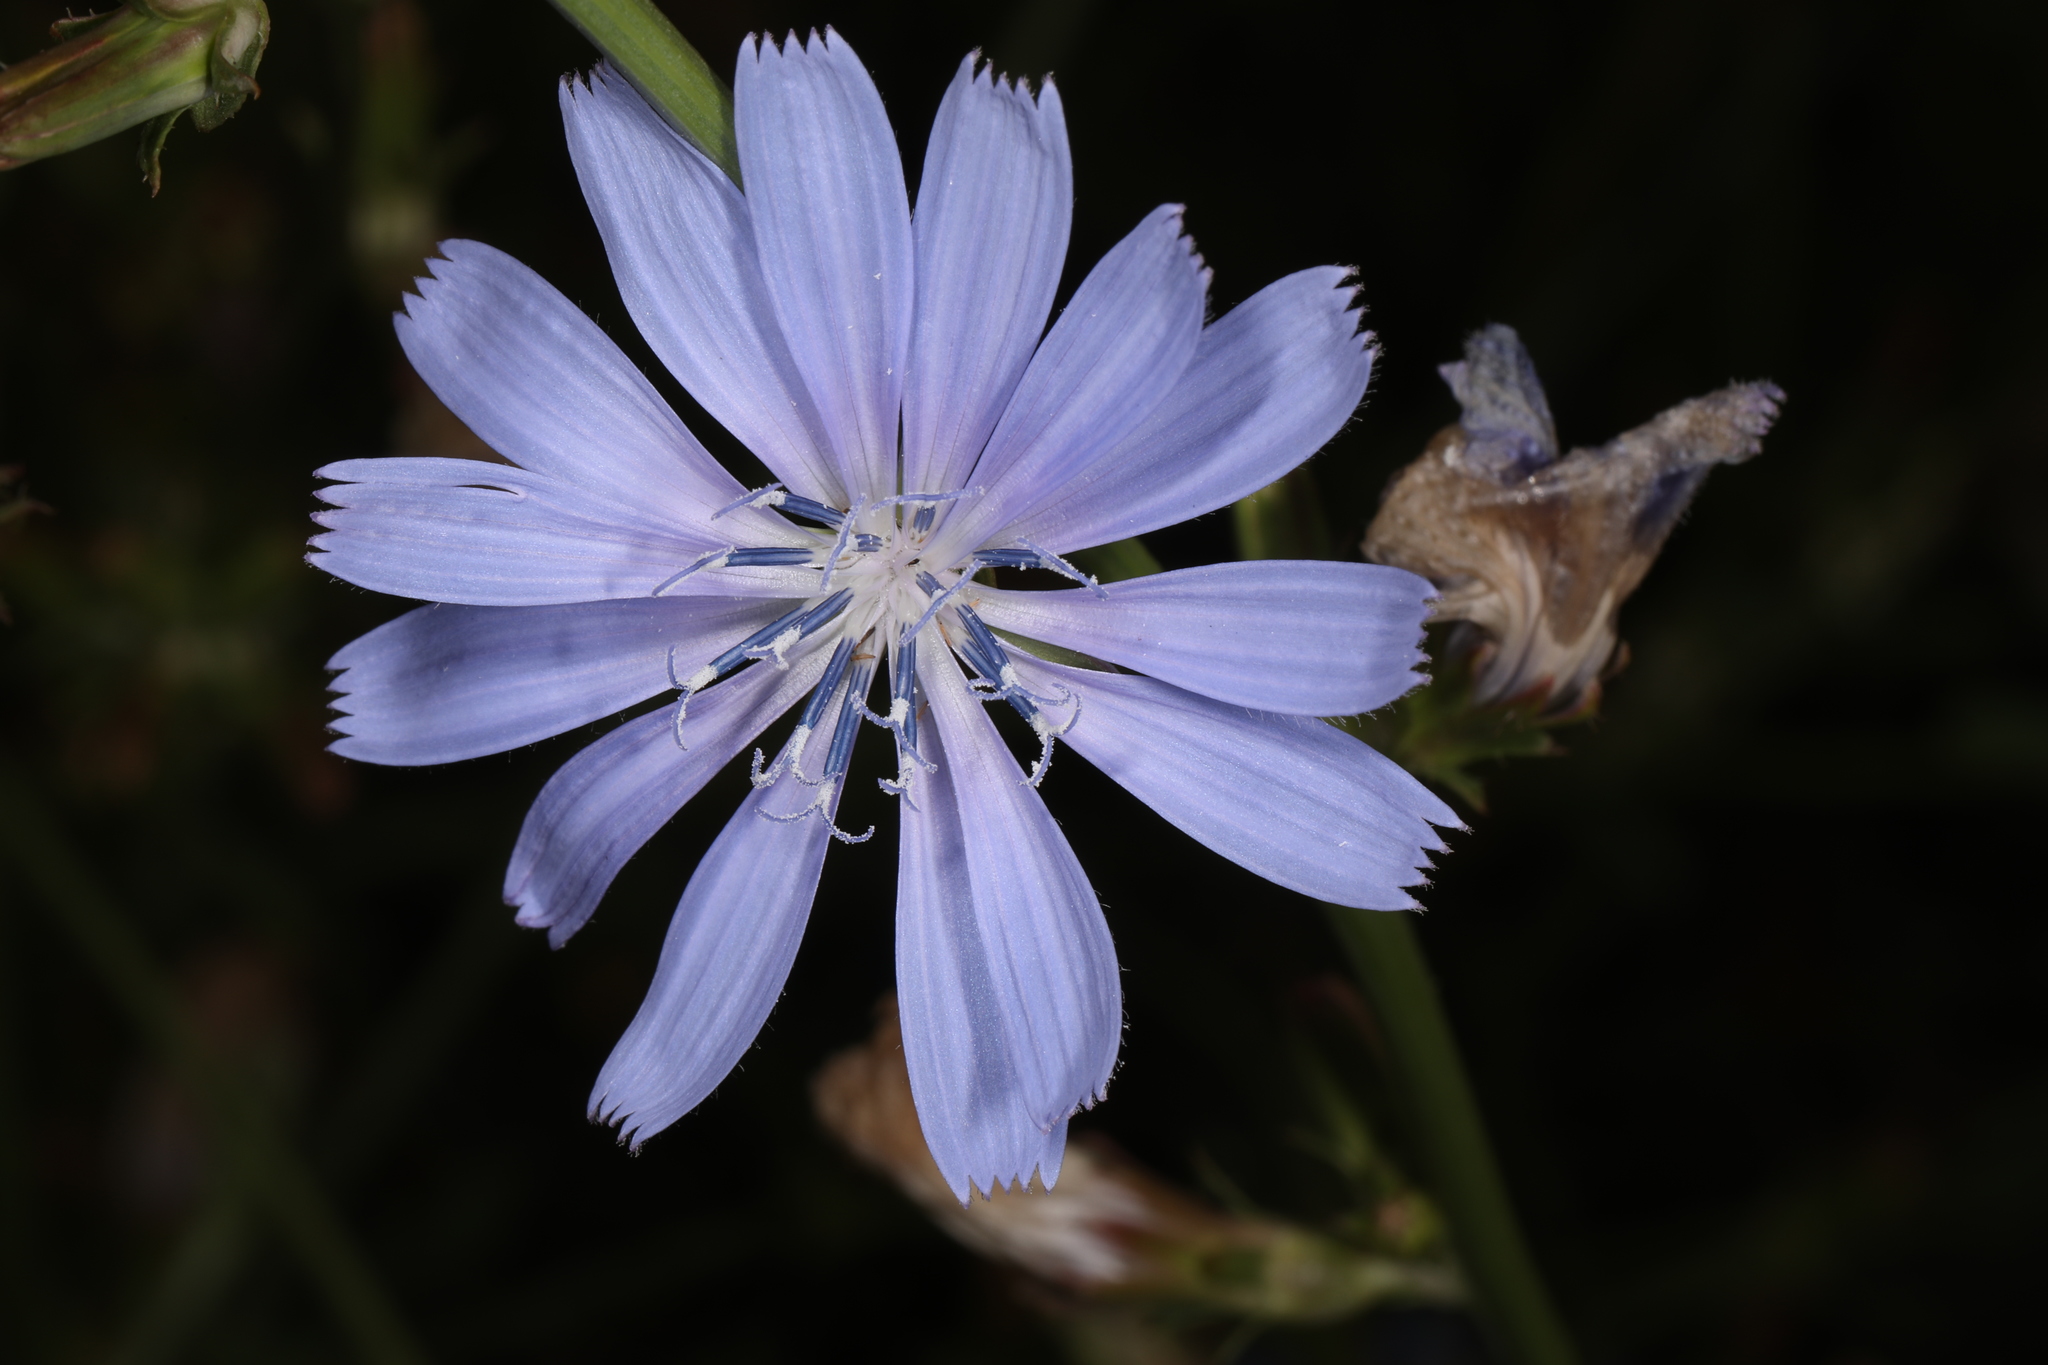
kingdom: Plantae
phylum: Tracheophyta
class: Magnoliopsida
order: Asterales
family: Asteraceae
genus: Cichorium
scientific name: Cichorium intybus
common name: Chicory
